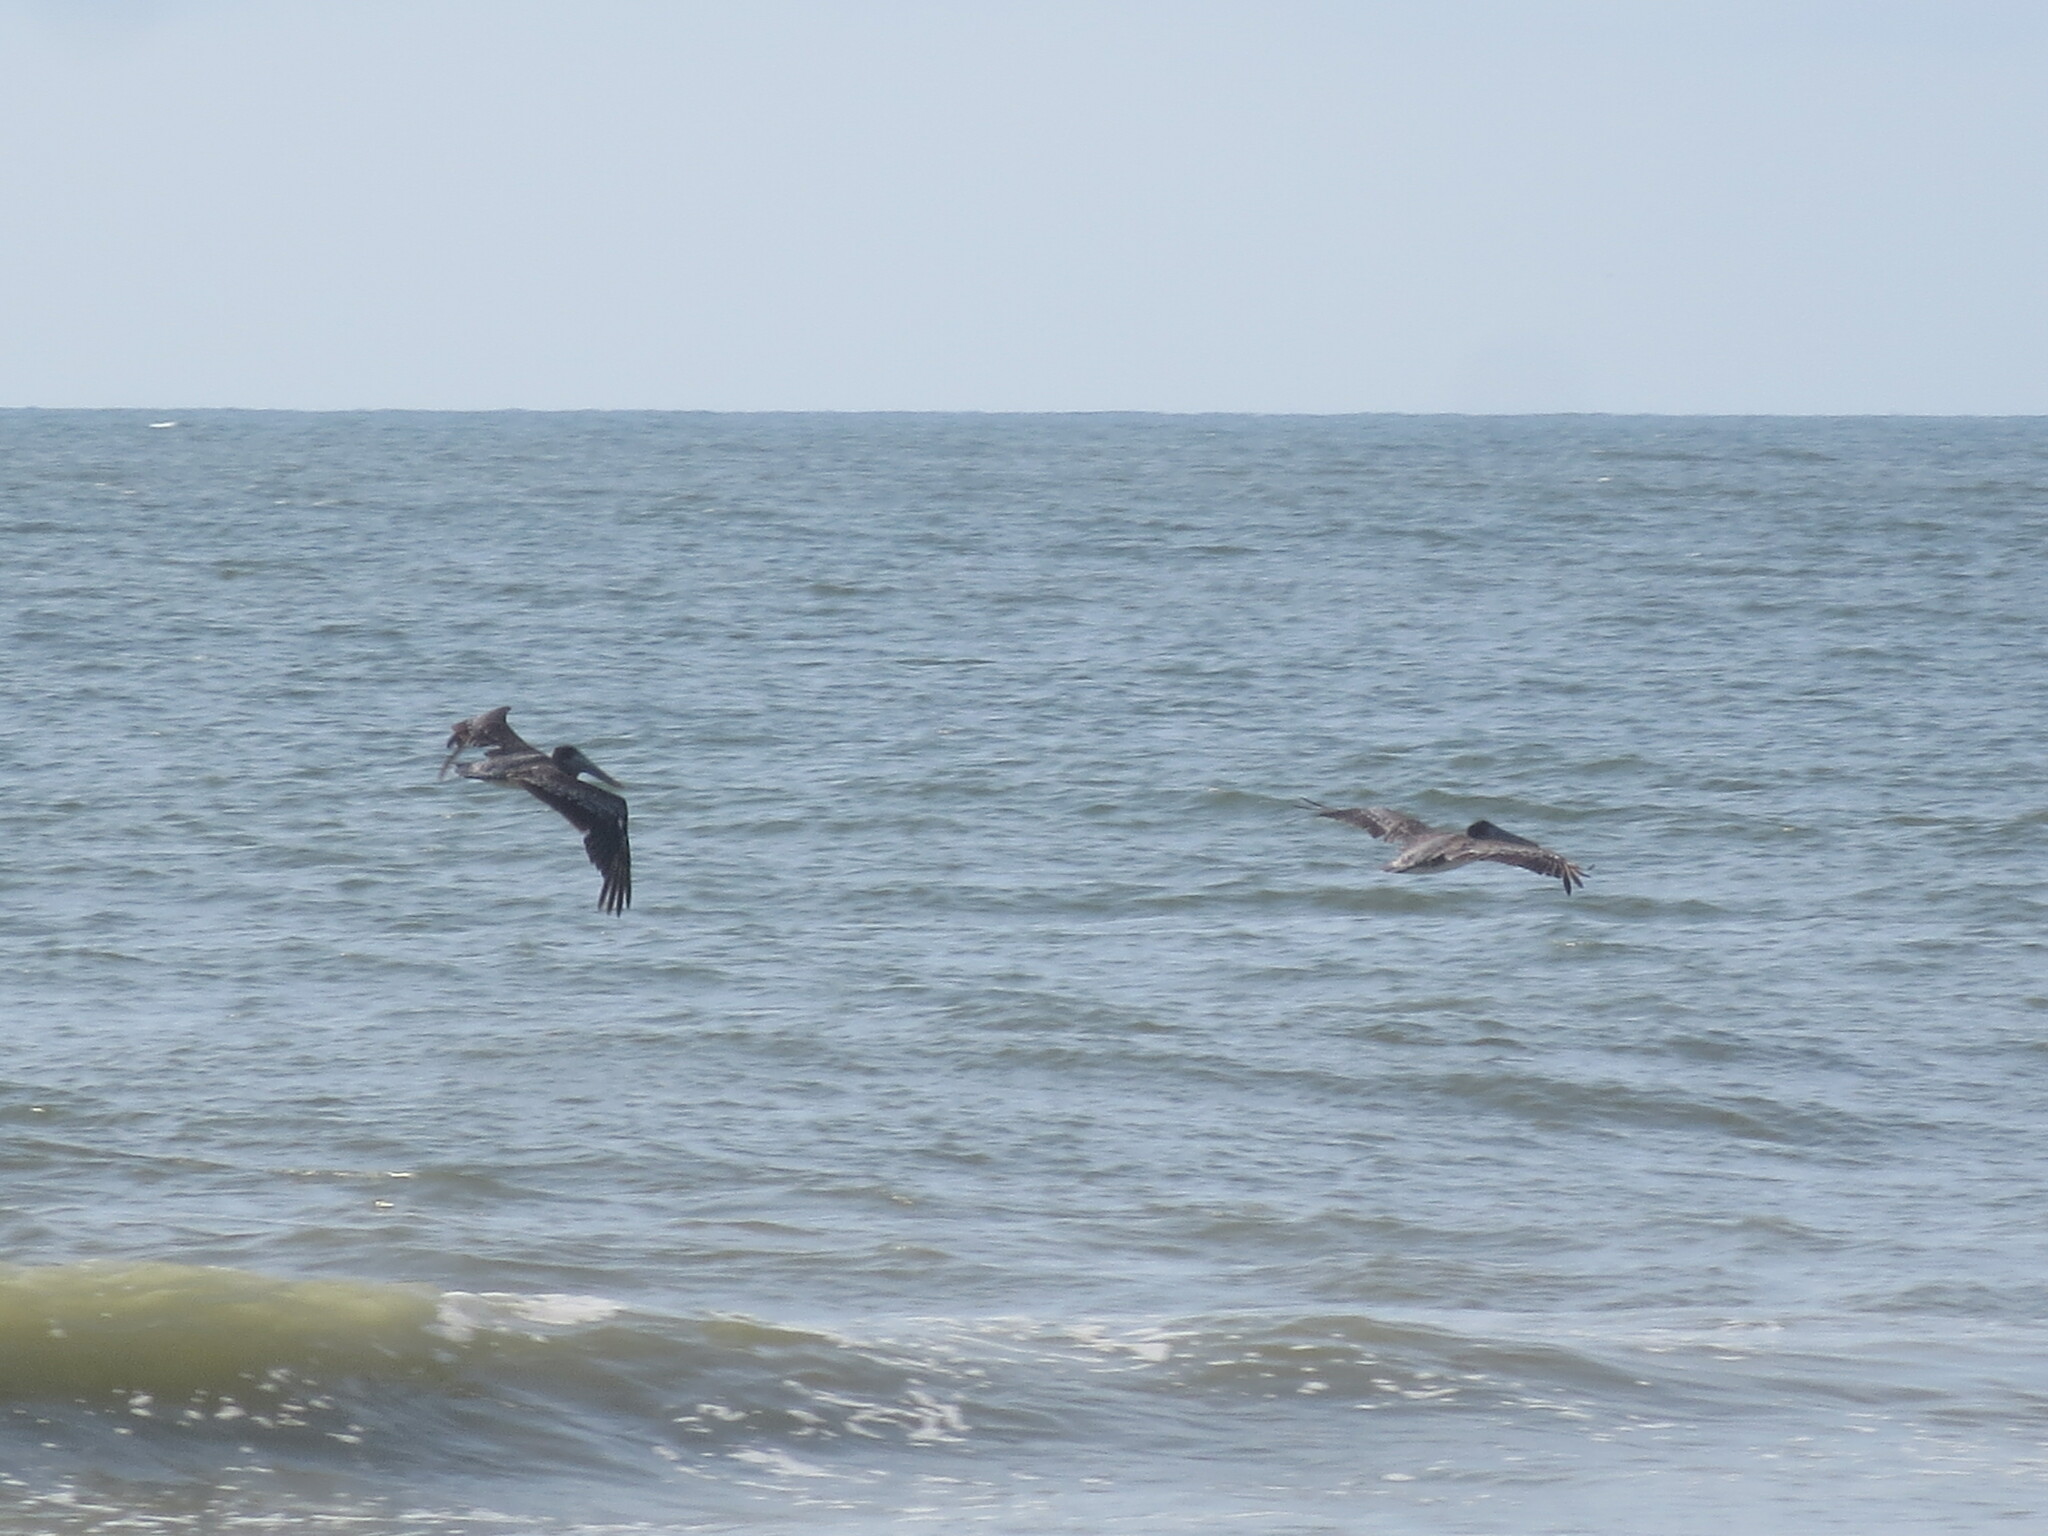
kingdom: Animalia
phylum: Chordata
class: Aves
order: Pelecaniformes
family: Pelecanidae
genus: Pelecanus
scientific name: Pelecanus occidentalis
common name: Brown pelican
